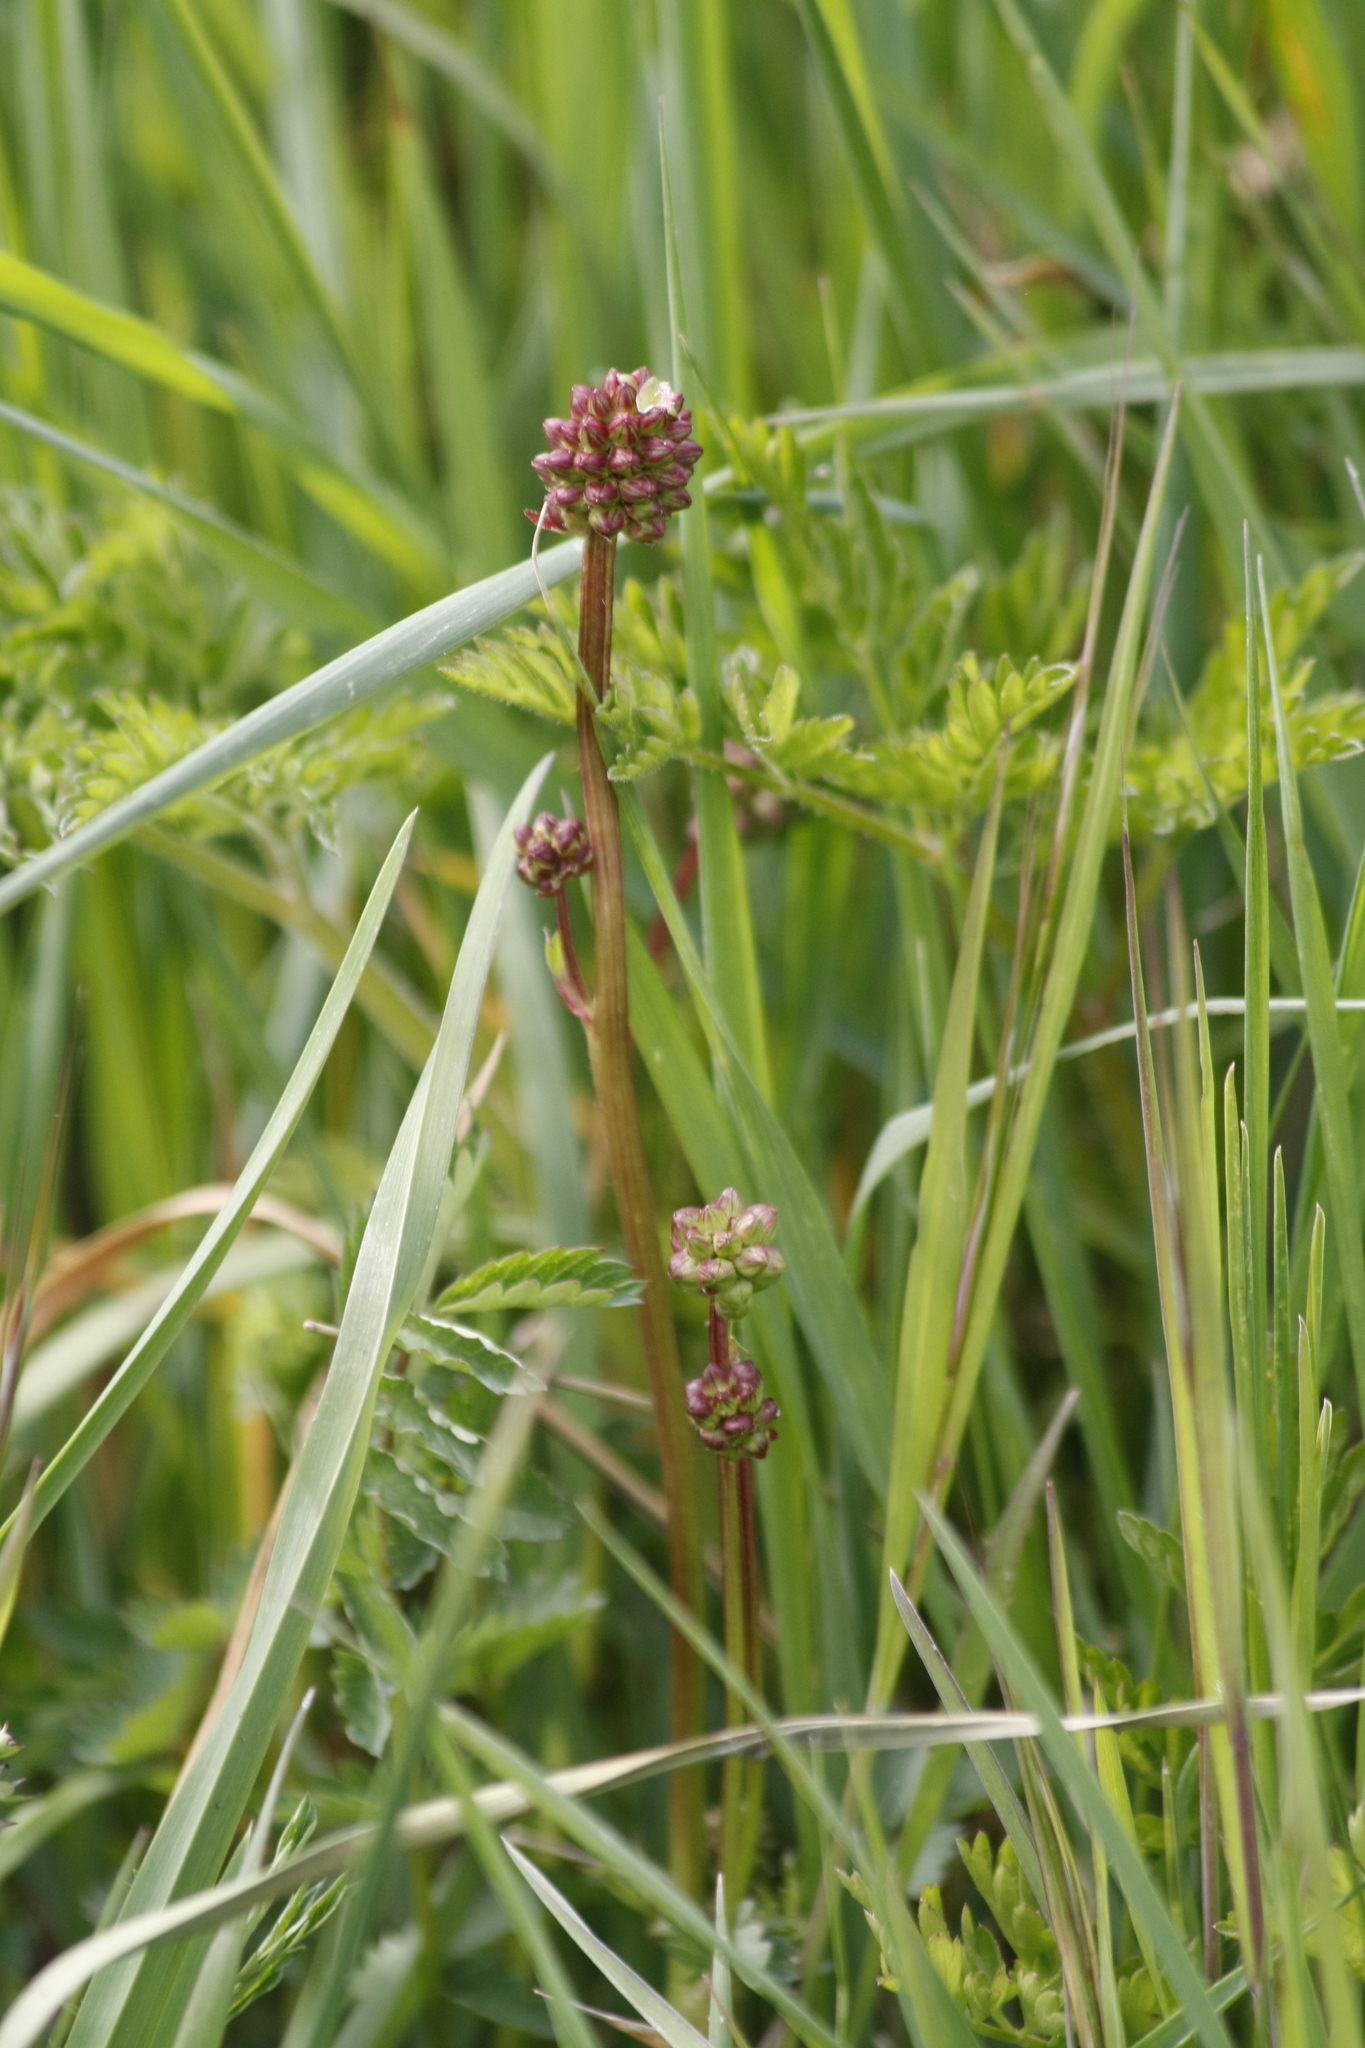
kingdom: Plantae
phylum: Tracheophyta
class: Magnoliopsida
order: Rosales
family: Rosaceae
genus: Poterium
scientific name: Poterium sanguisorba
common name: Salad burnet
